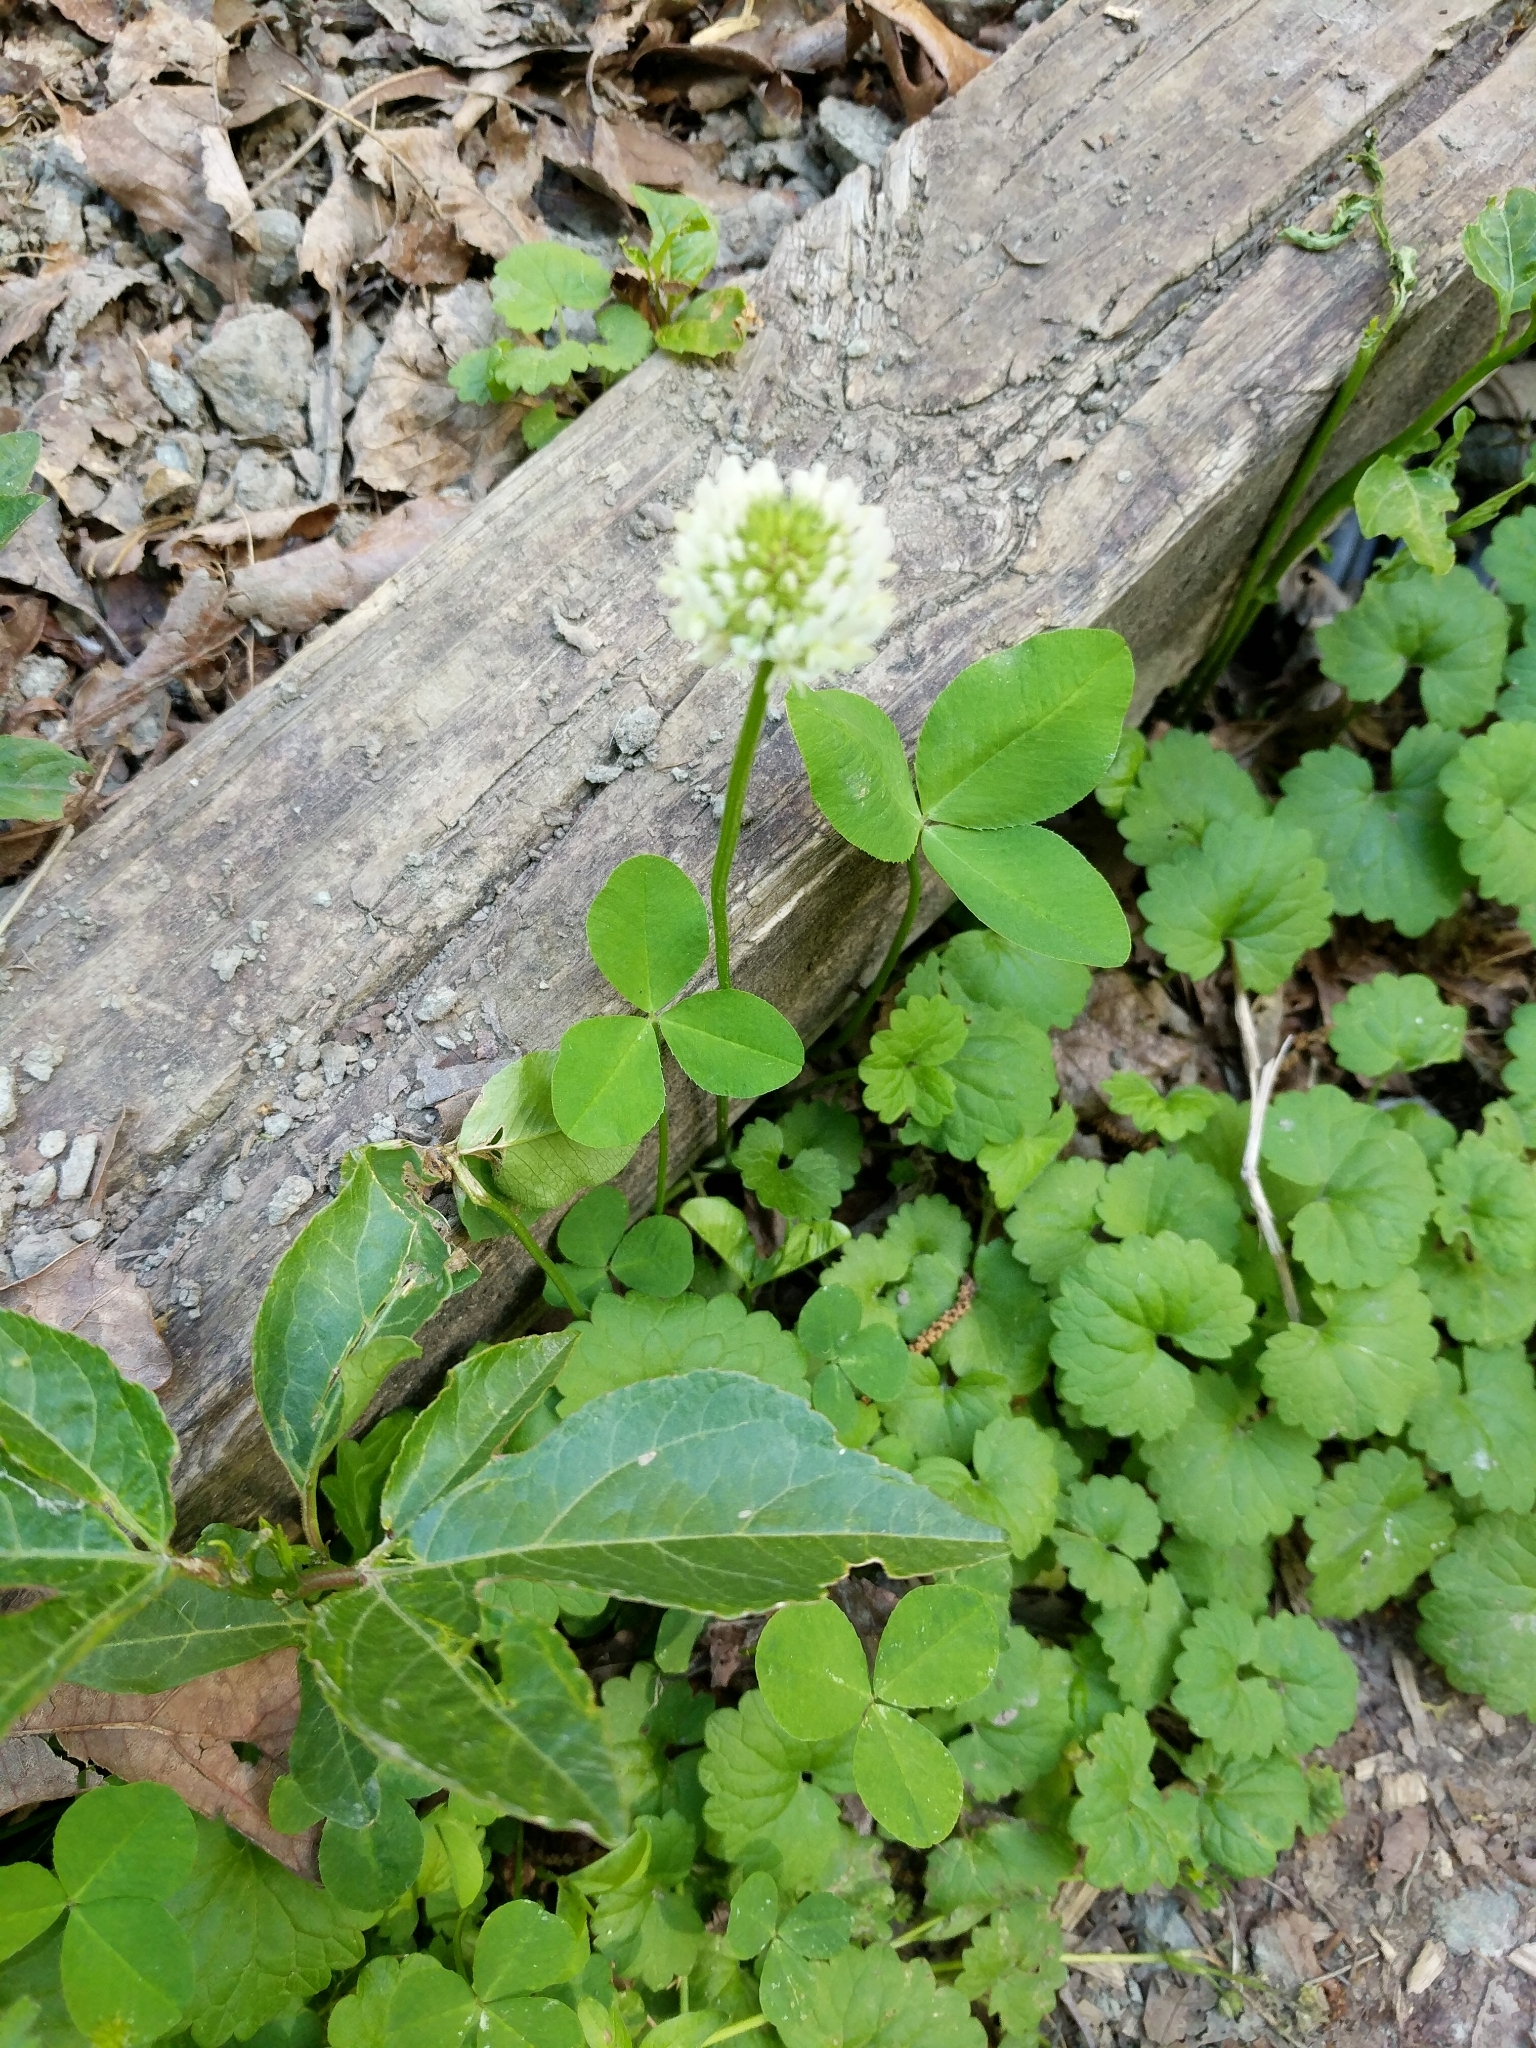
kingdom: Plantae
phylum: Tracheophyta
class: Magnoliopsida
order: Fabales
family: Fabaceae
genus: Trifolium
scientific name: Trifolium repens
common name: White clover
